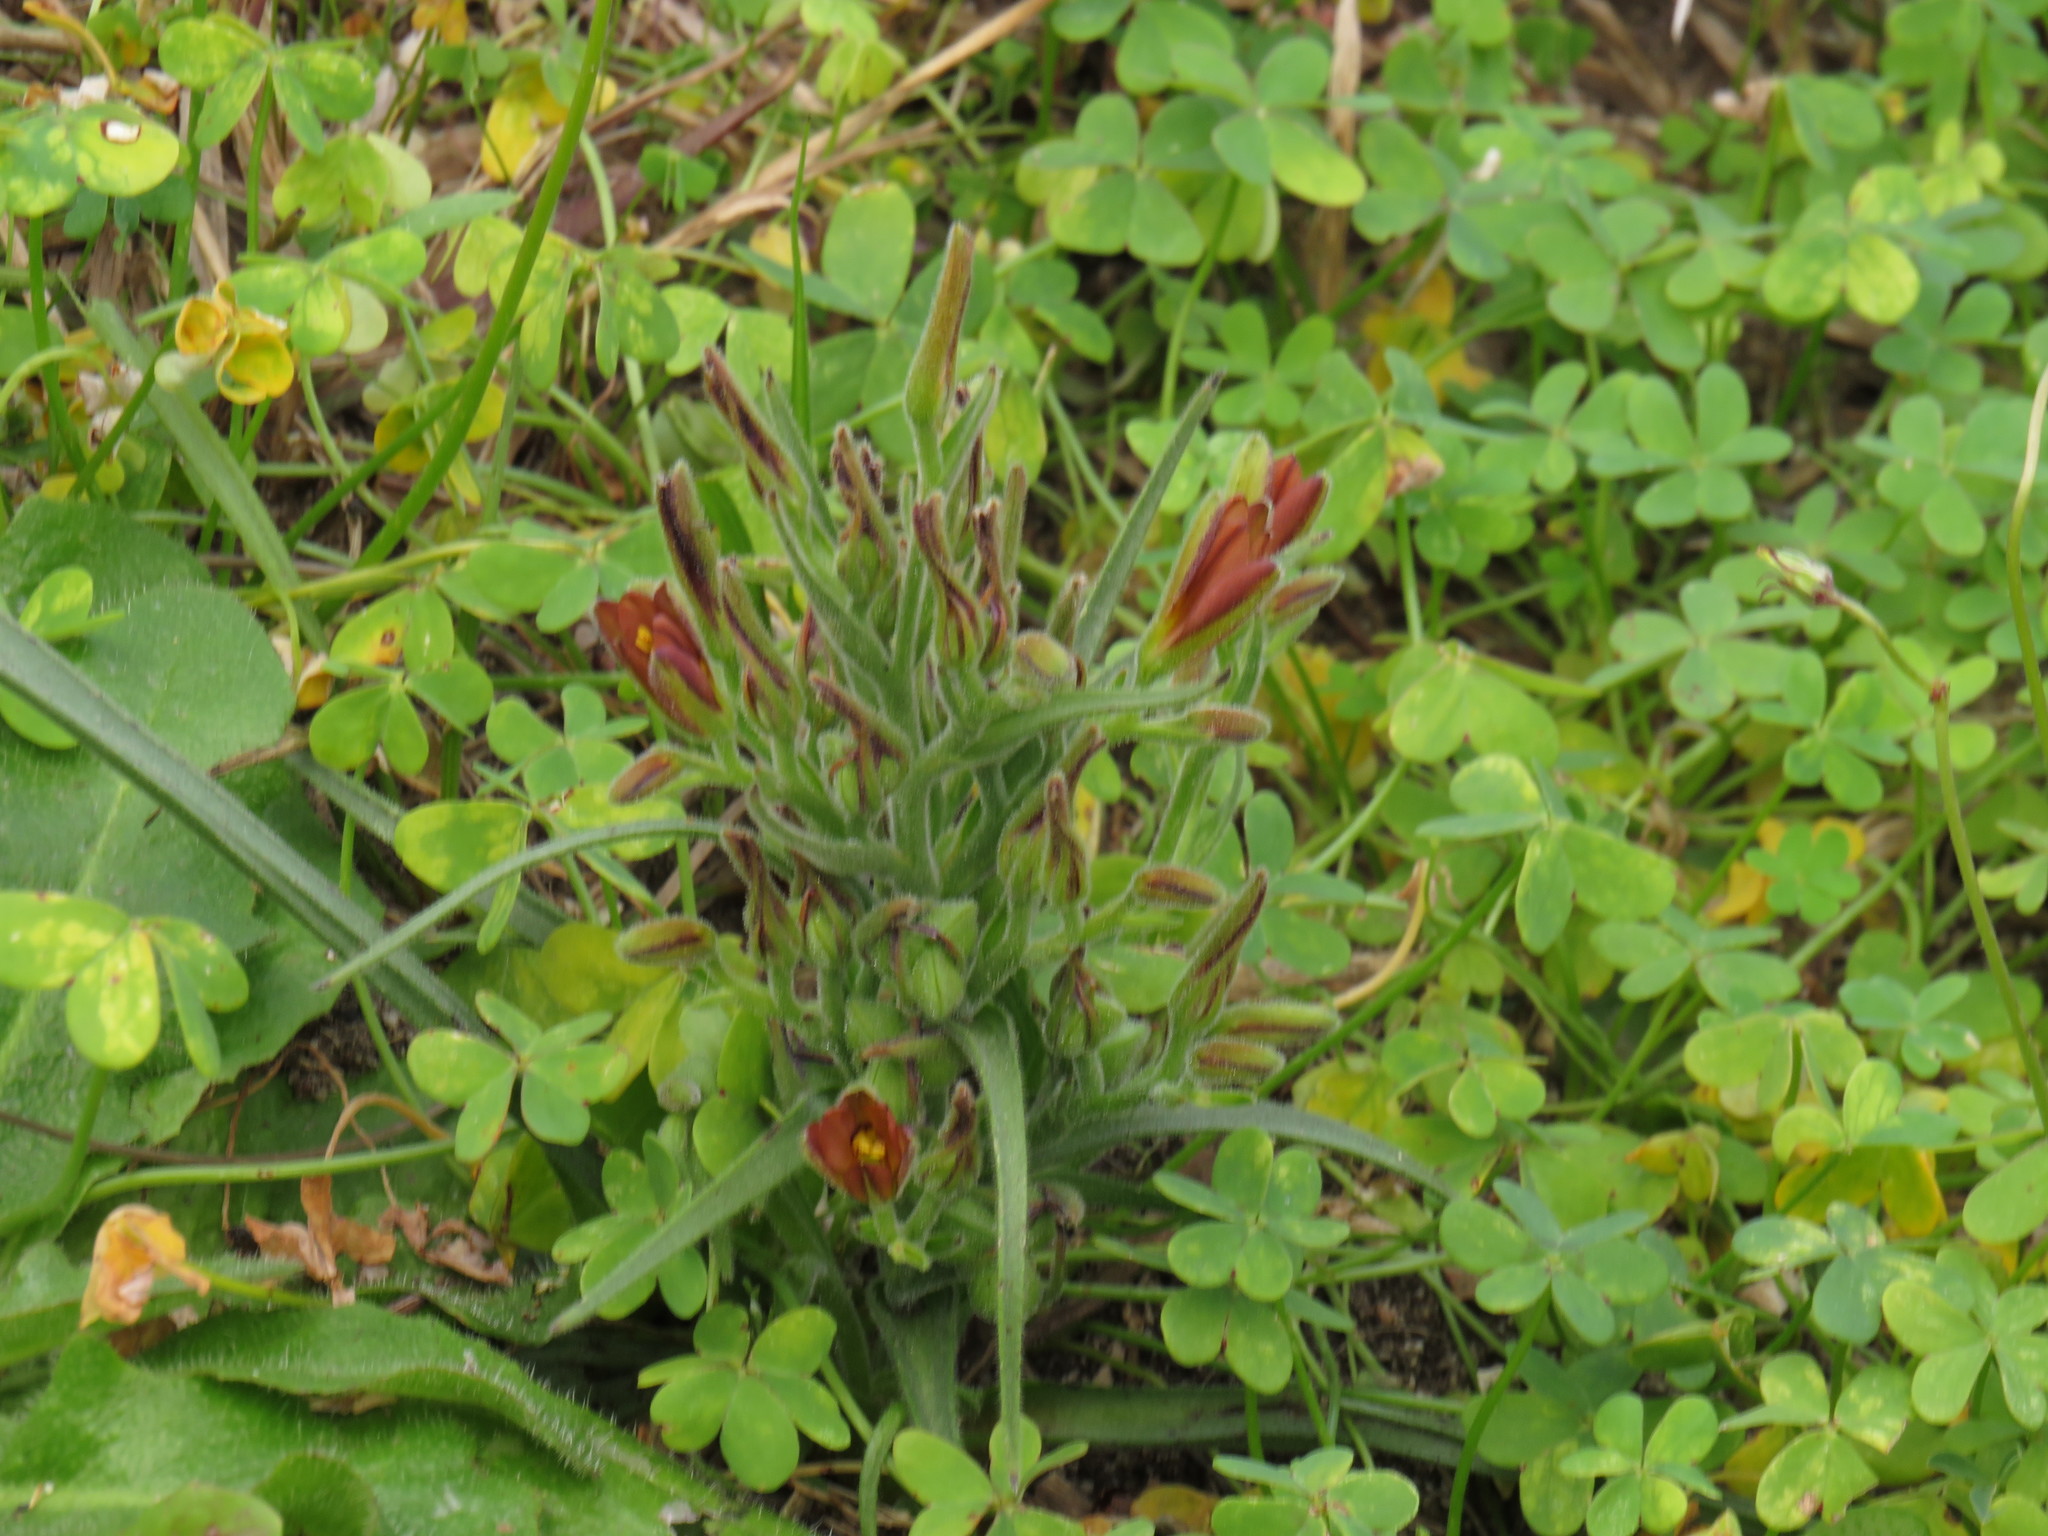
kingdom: Plantae
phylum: Tracheophyta
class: Liliopsida
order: Commelinales
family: Haemodoraceae
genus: Wachendorfia
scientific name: Wachendorfia multiflora
